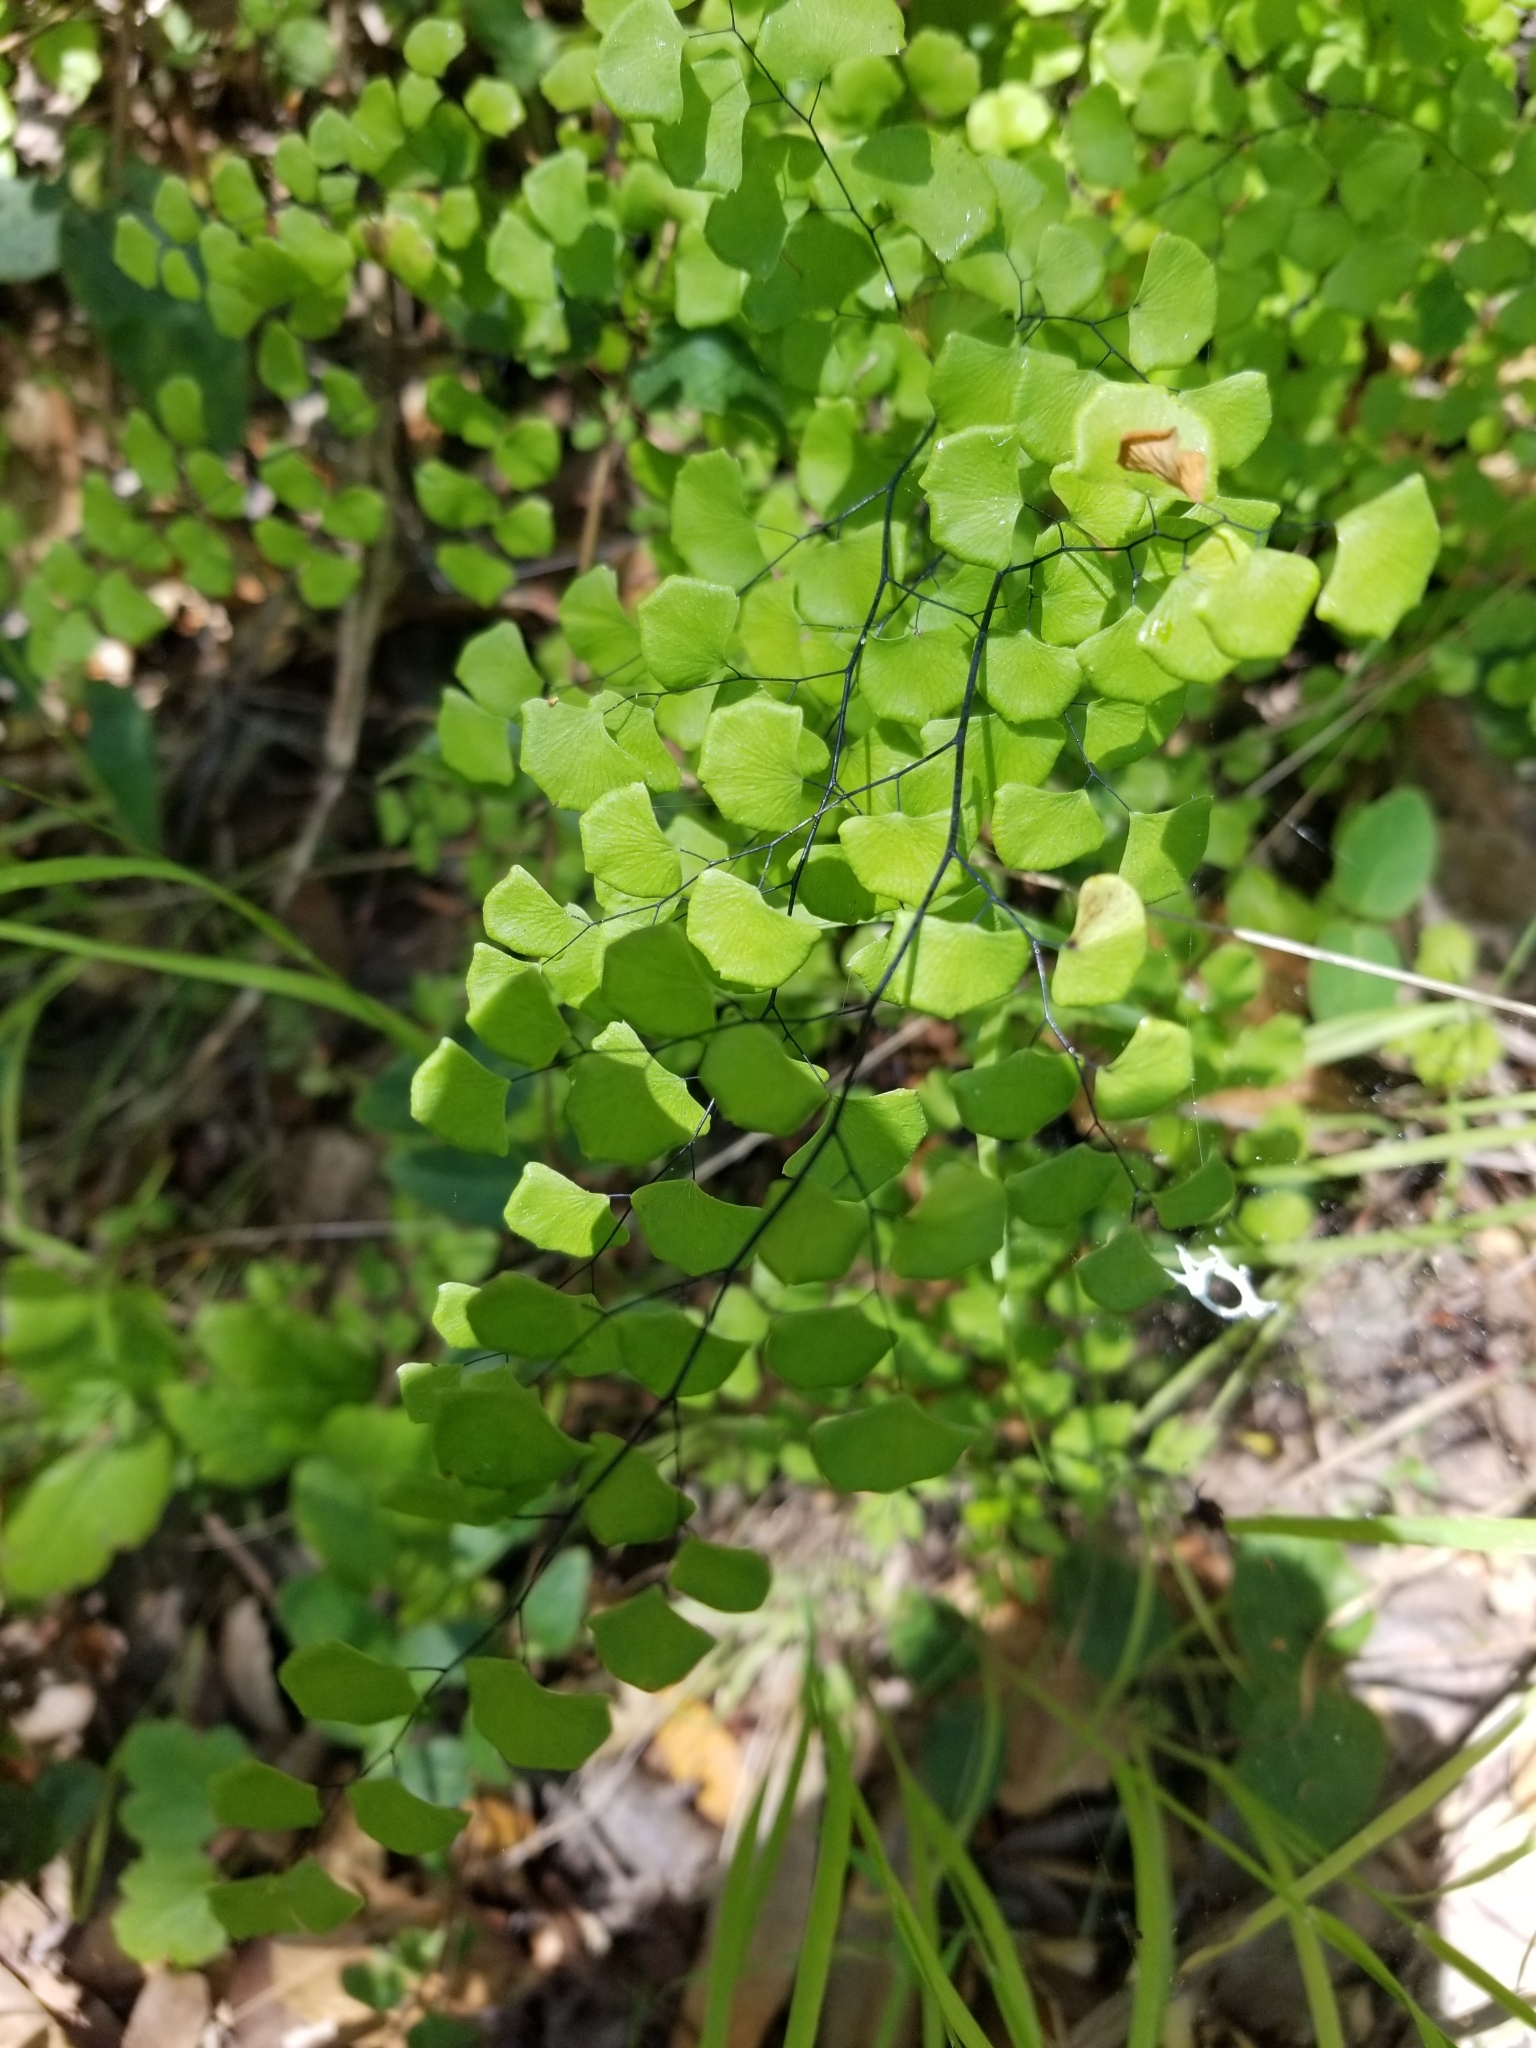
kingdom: Plantae
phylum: Tracheophyta
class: Polypodiopsida
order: Polypodiales
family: Pteridaceae
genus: Adiantum
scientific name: Adiantum jordanii
